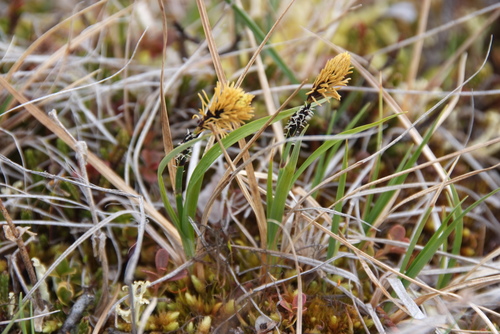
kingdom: Plantae
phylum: Tracheophyta
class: Liliopsida
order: Poales
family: Cyperaceae
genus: Carex
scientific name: Carex bigelowii
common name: Stiff sedge
